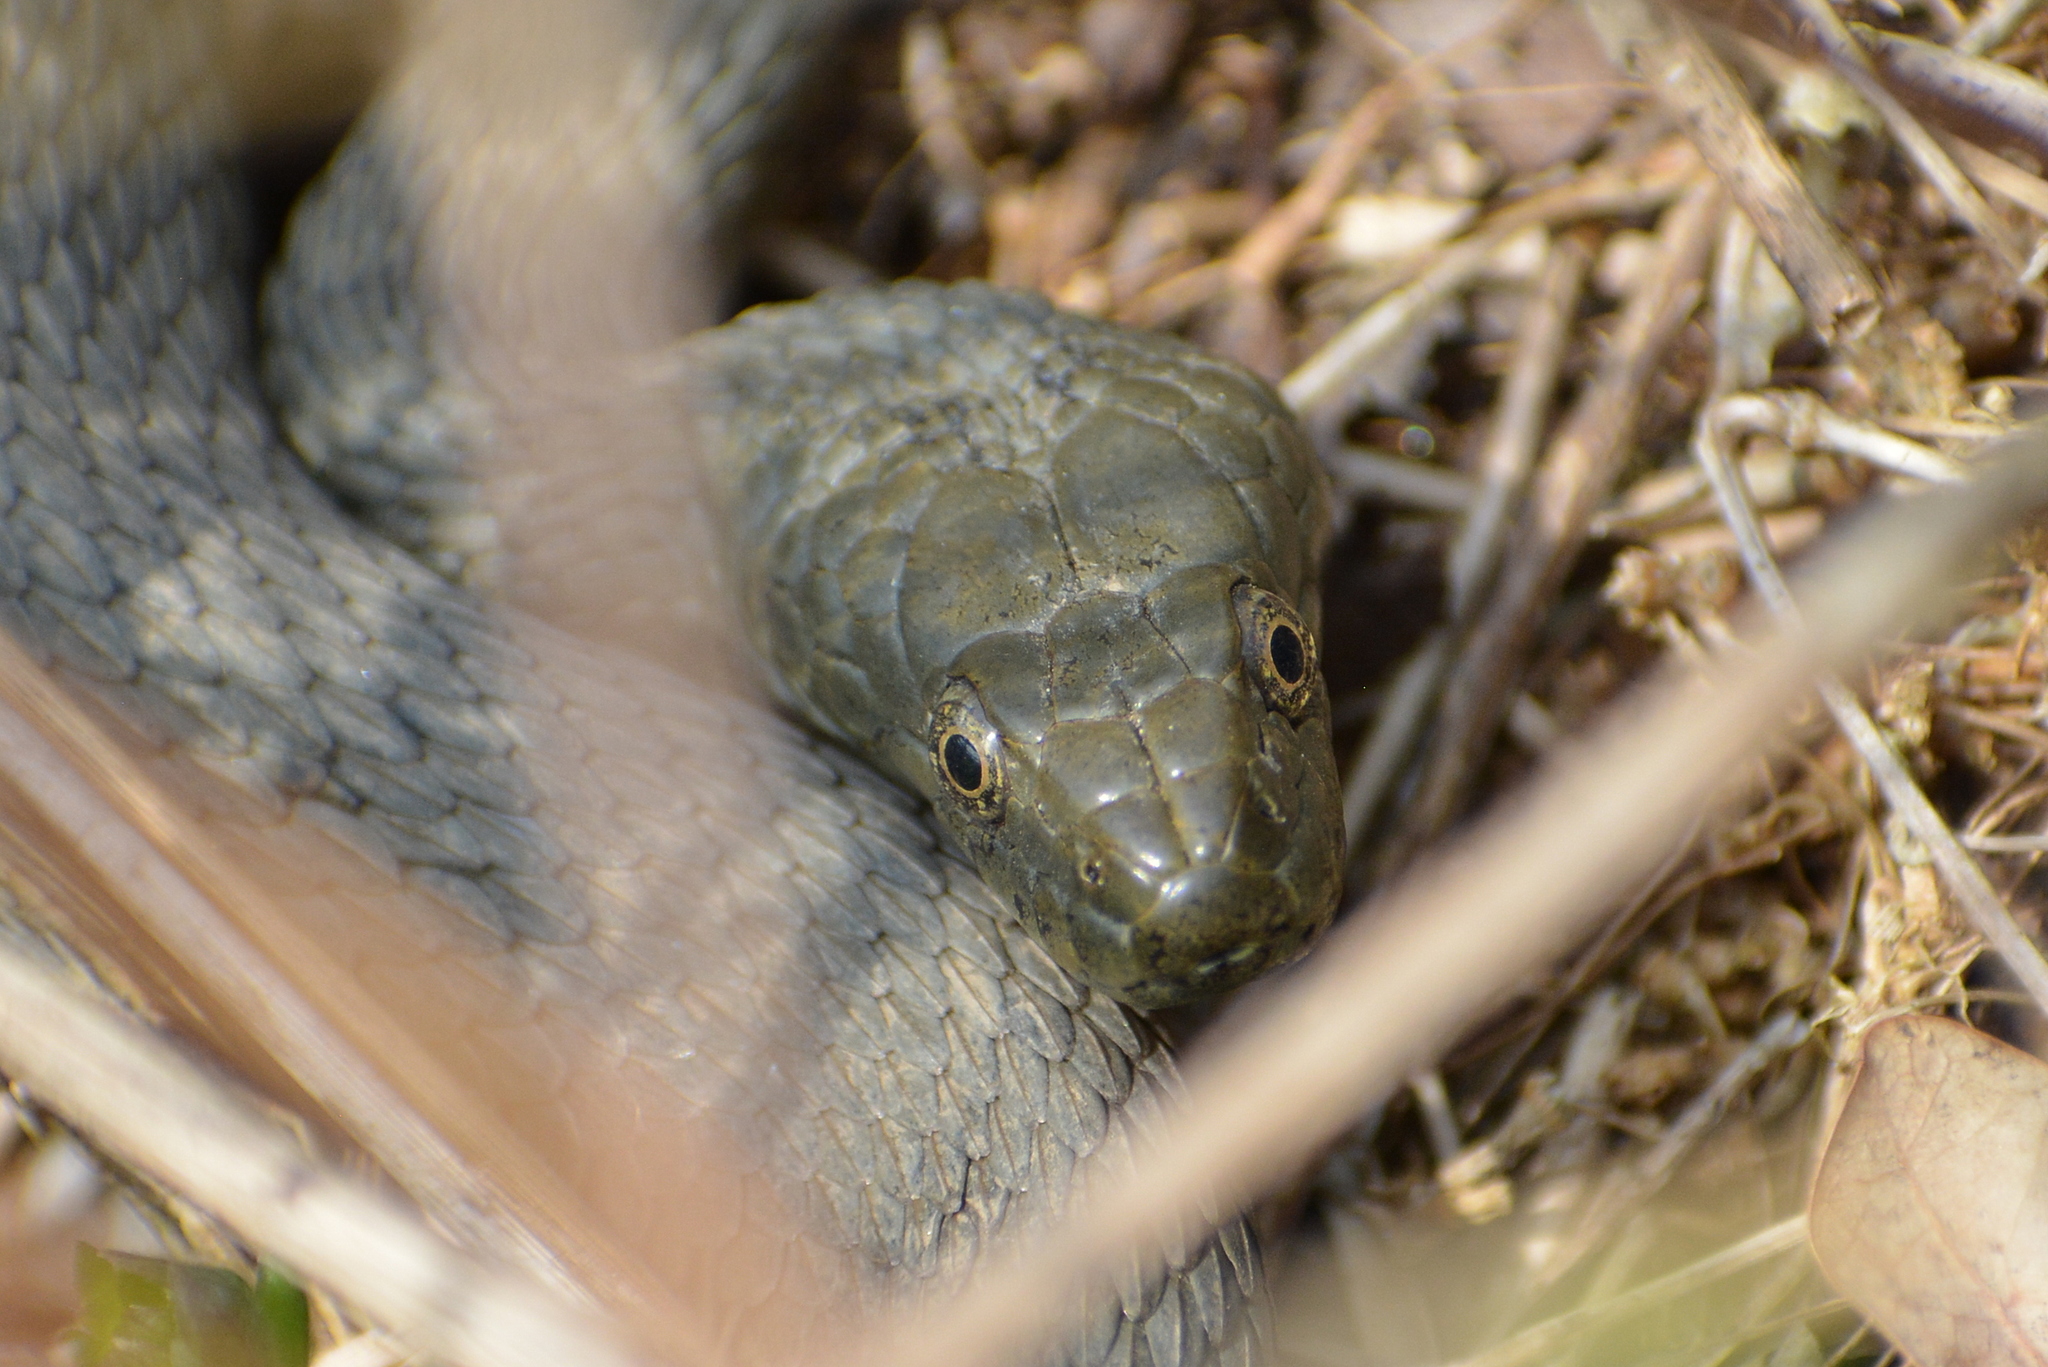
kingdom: Animalia
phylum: Chordata
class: Squamata
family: Colubridae
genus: Natrix
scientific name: Natrix tessellata
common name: Dice snake
